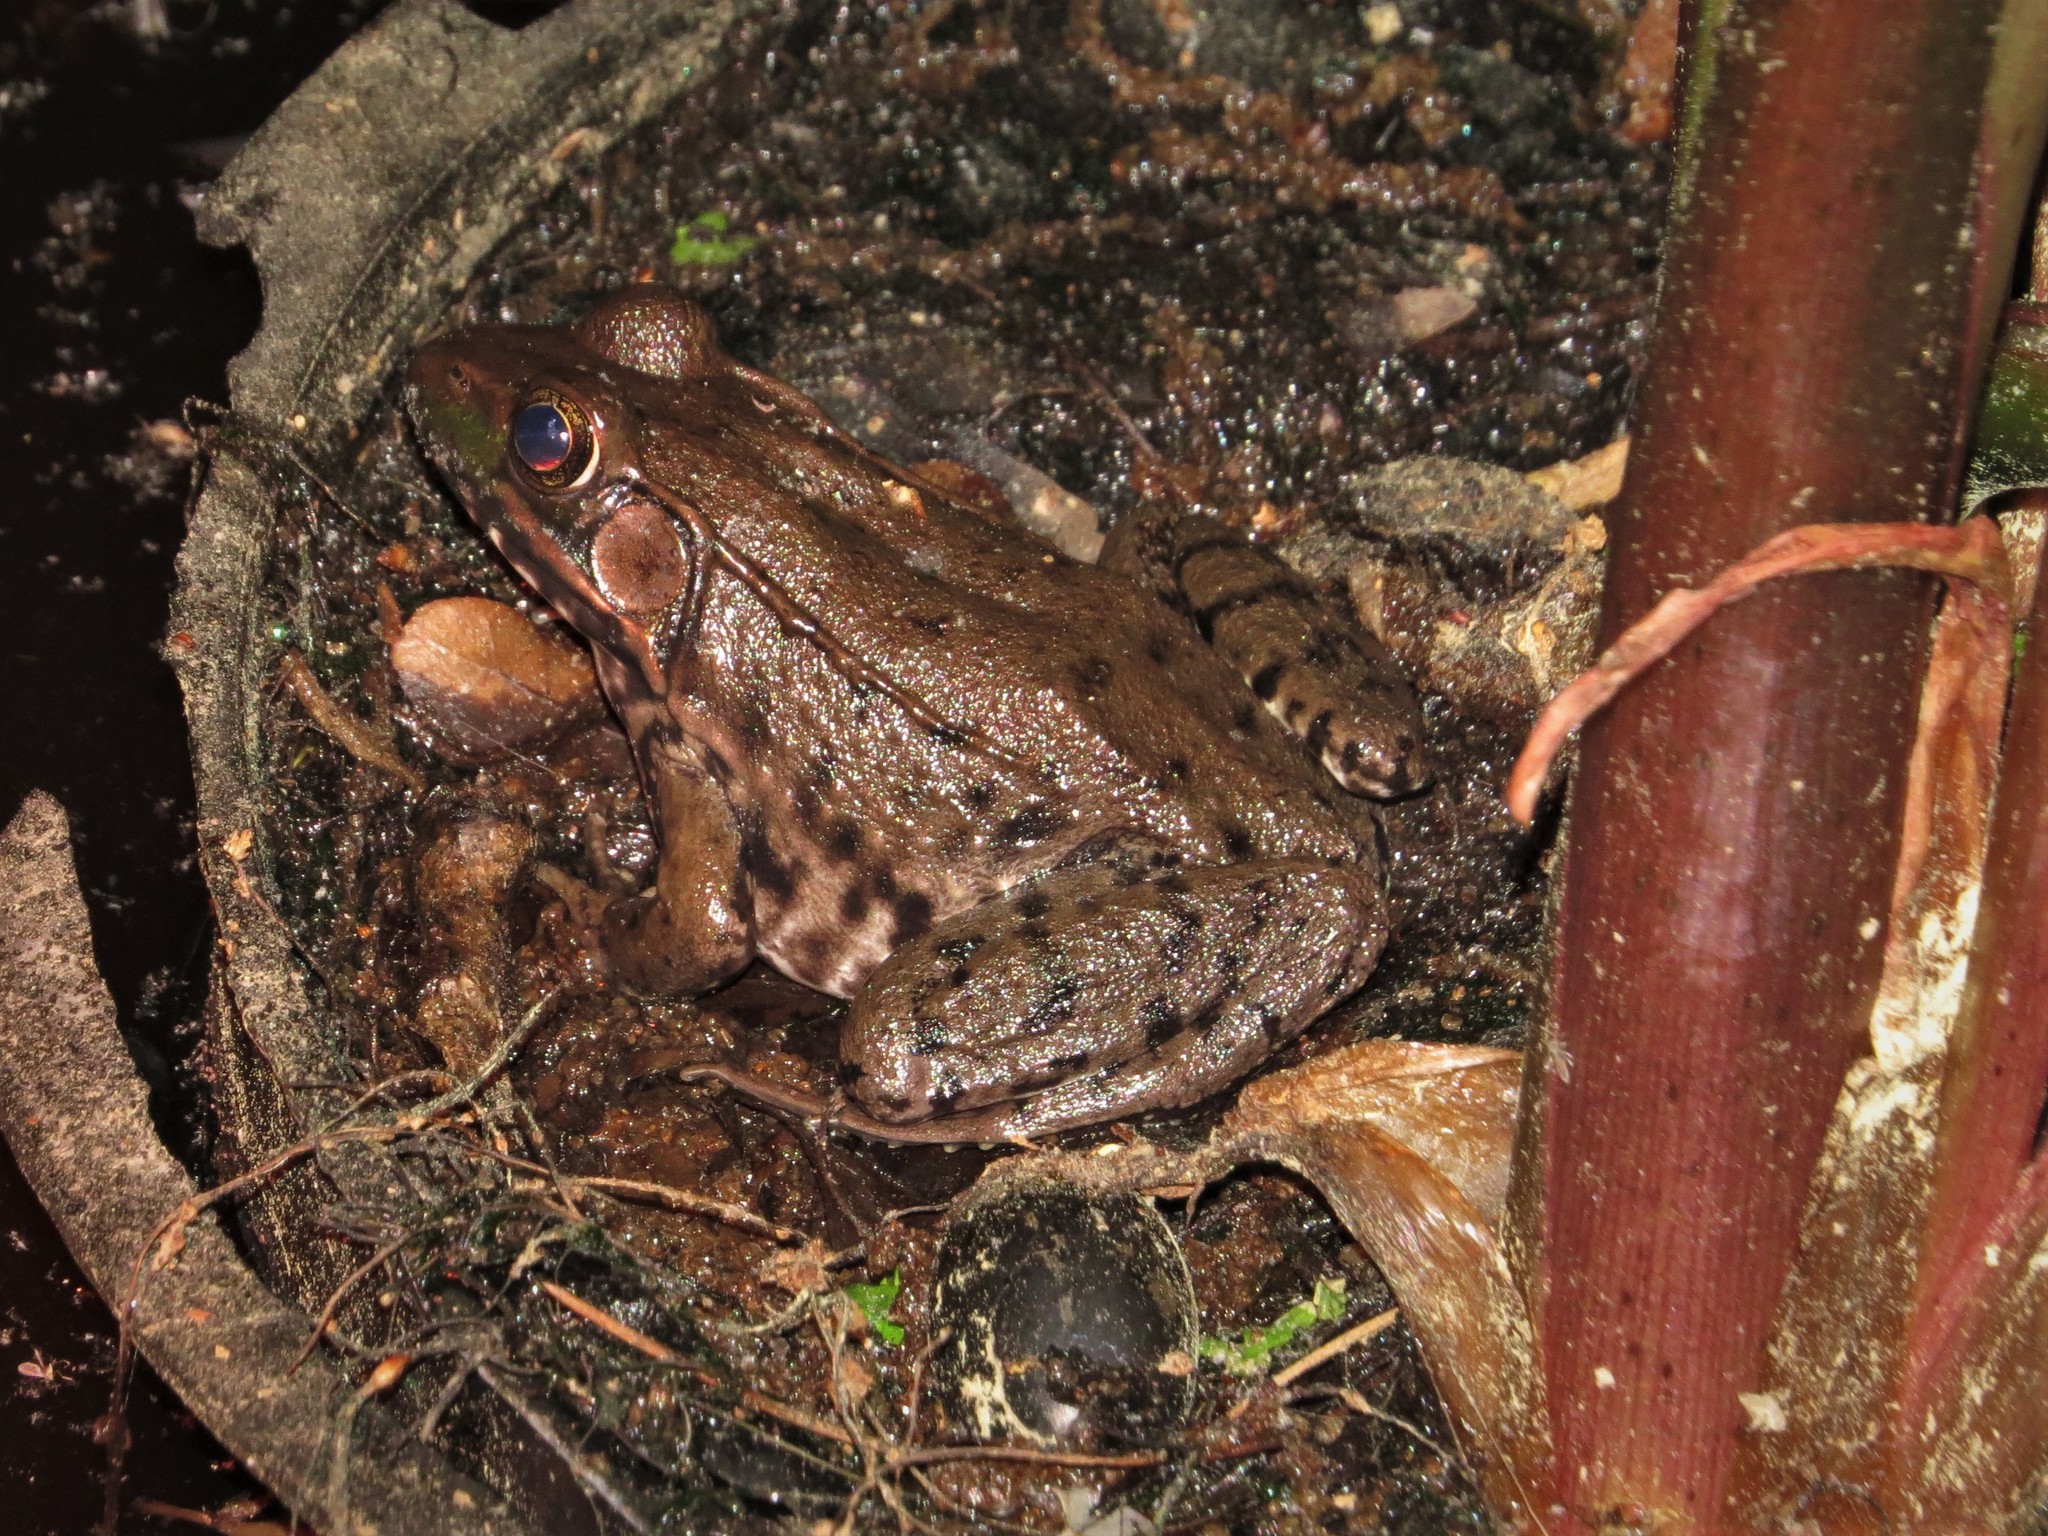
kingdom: Animalia
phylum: Chordata
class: Amphibia
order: Anura
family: Ranidae
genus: Lithobates
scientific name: Lithobates clamitans
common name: Green frog
